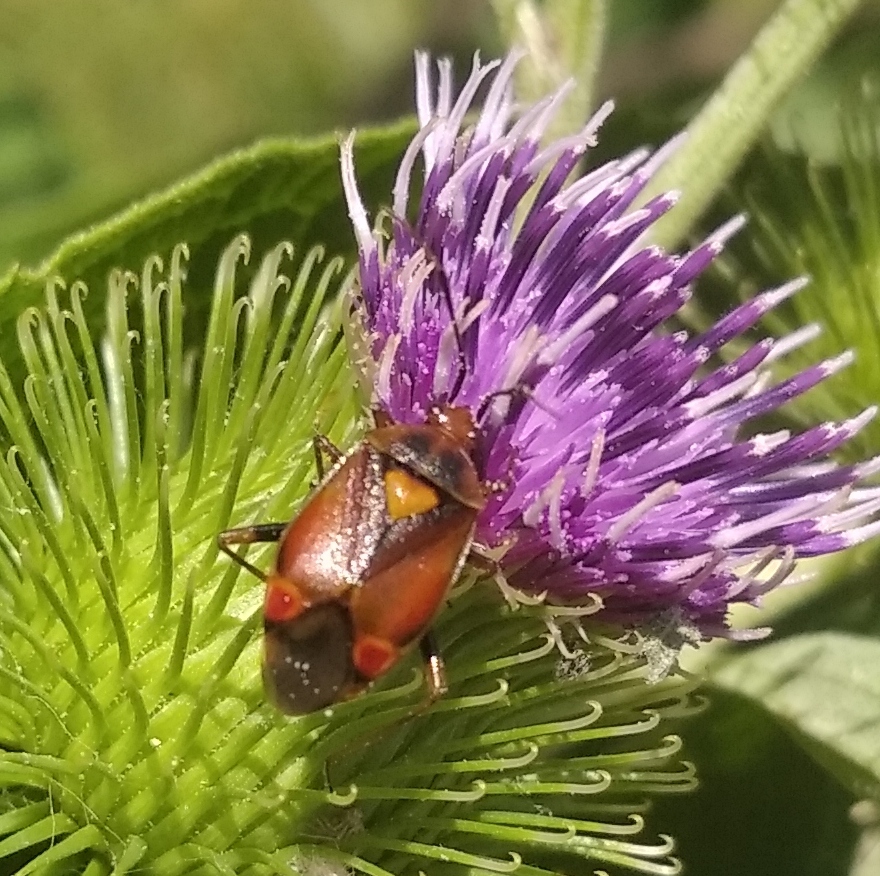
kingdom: Animalia
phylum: Arthropoda
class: Insecta
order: Hemiptera
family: Miridae
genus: Deraeocoris
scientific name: Deraeocoris ruber
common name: Plant bug
